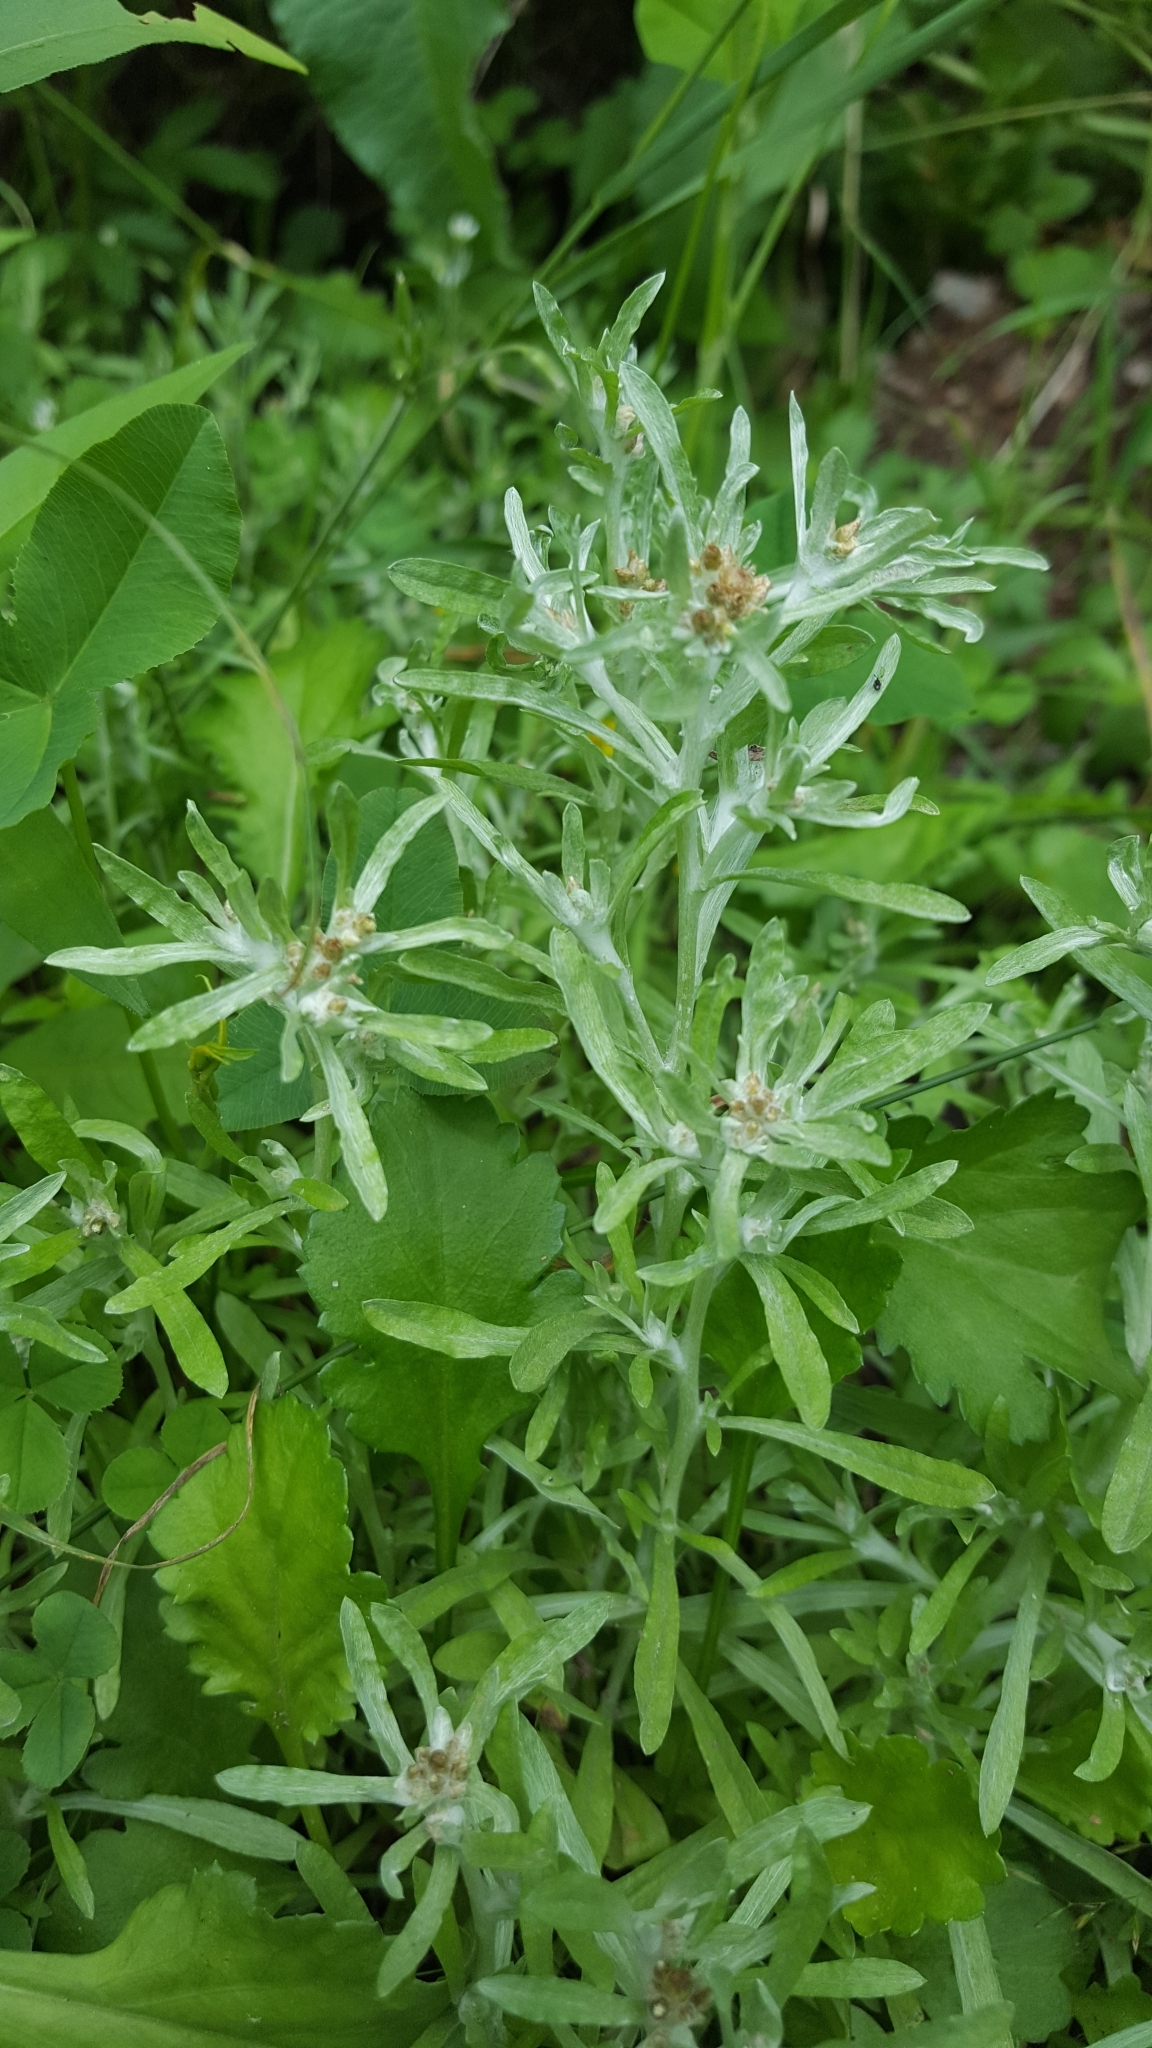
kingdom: Plantae
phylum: Tracheophyta
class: Magnoliopsida
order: Asterales
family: Asteraceae
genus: Gnaphalium
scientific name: Gnaphalium uliginosum
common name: Marsh cudweed
